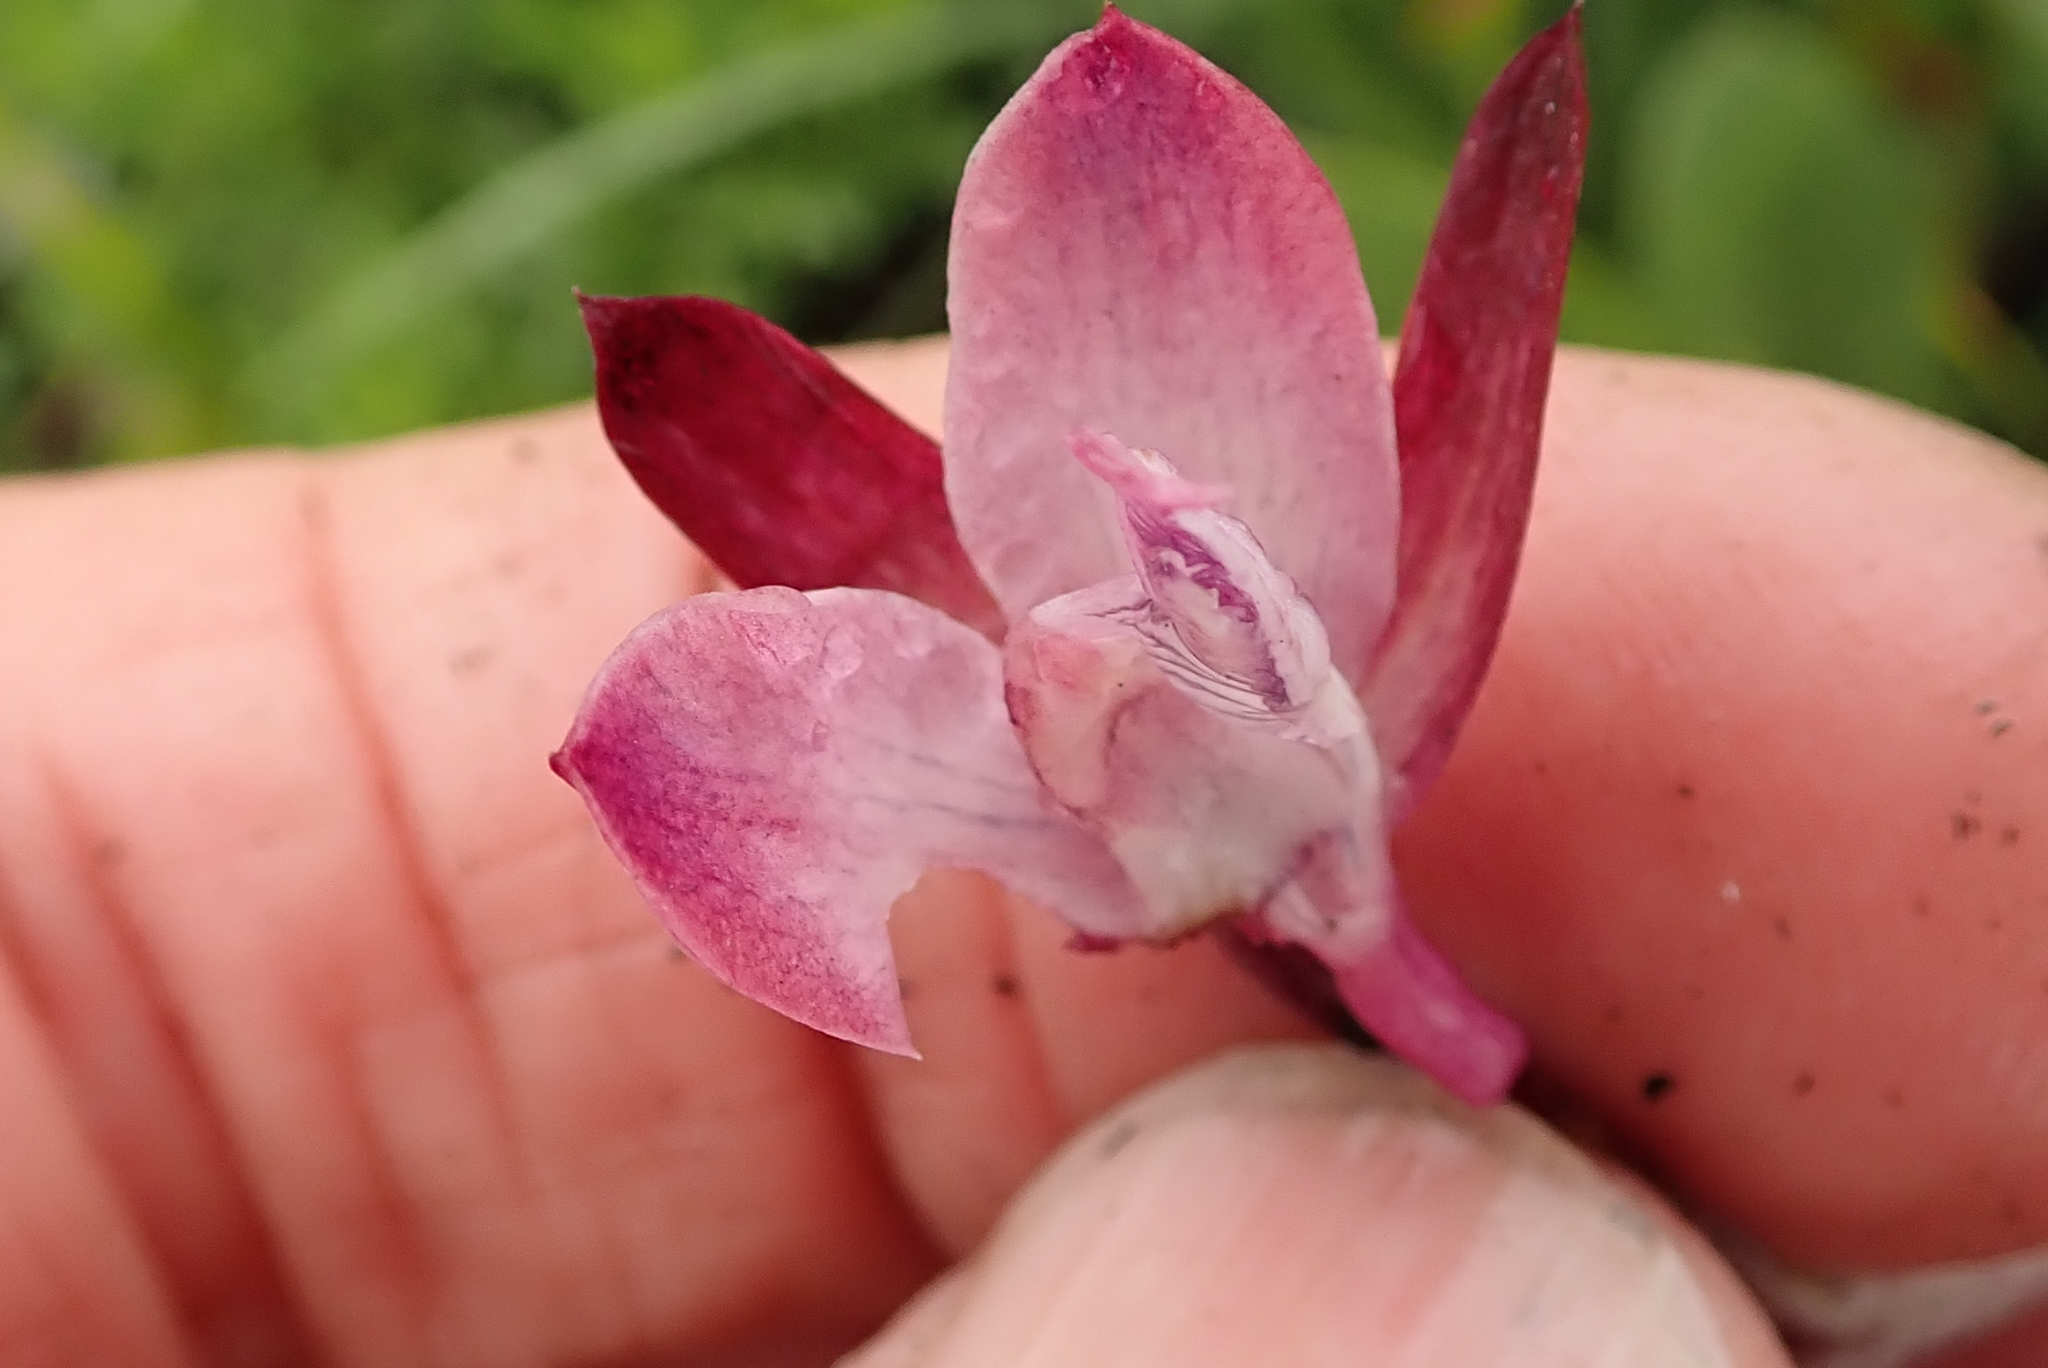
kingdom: Plantae
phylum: Tracheophyta
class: Liliopsida
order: Asparagales
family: Orchidaceae
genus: Eulophia
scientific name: Eulophia hians
